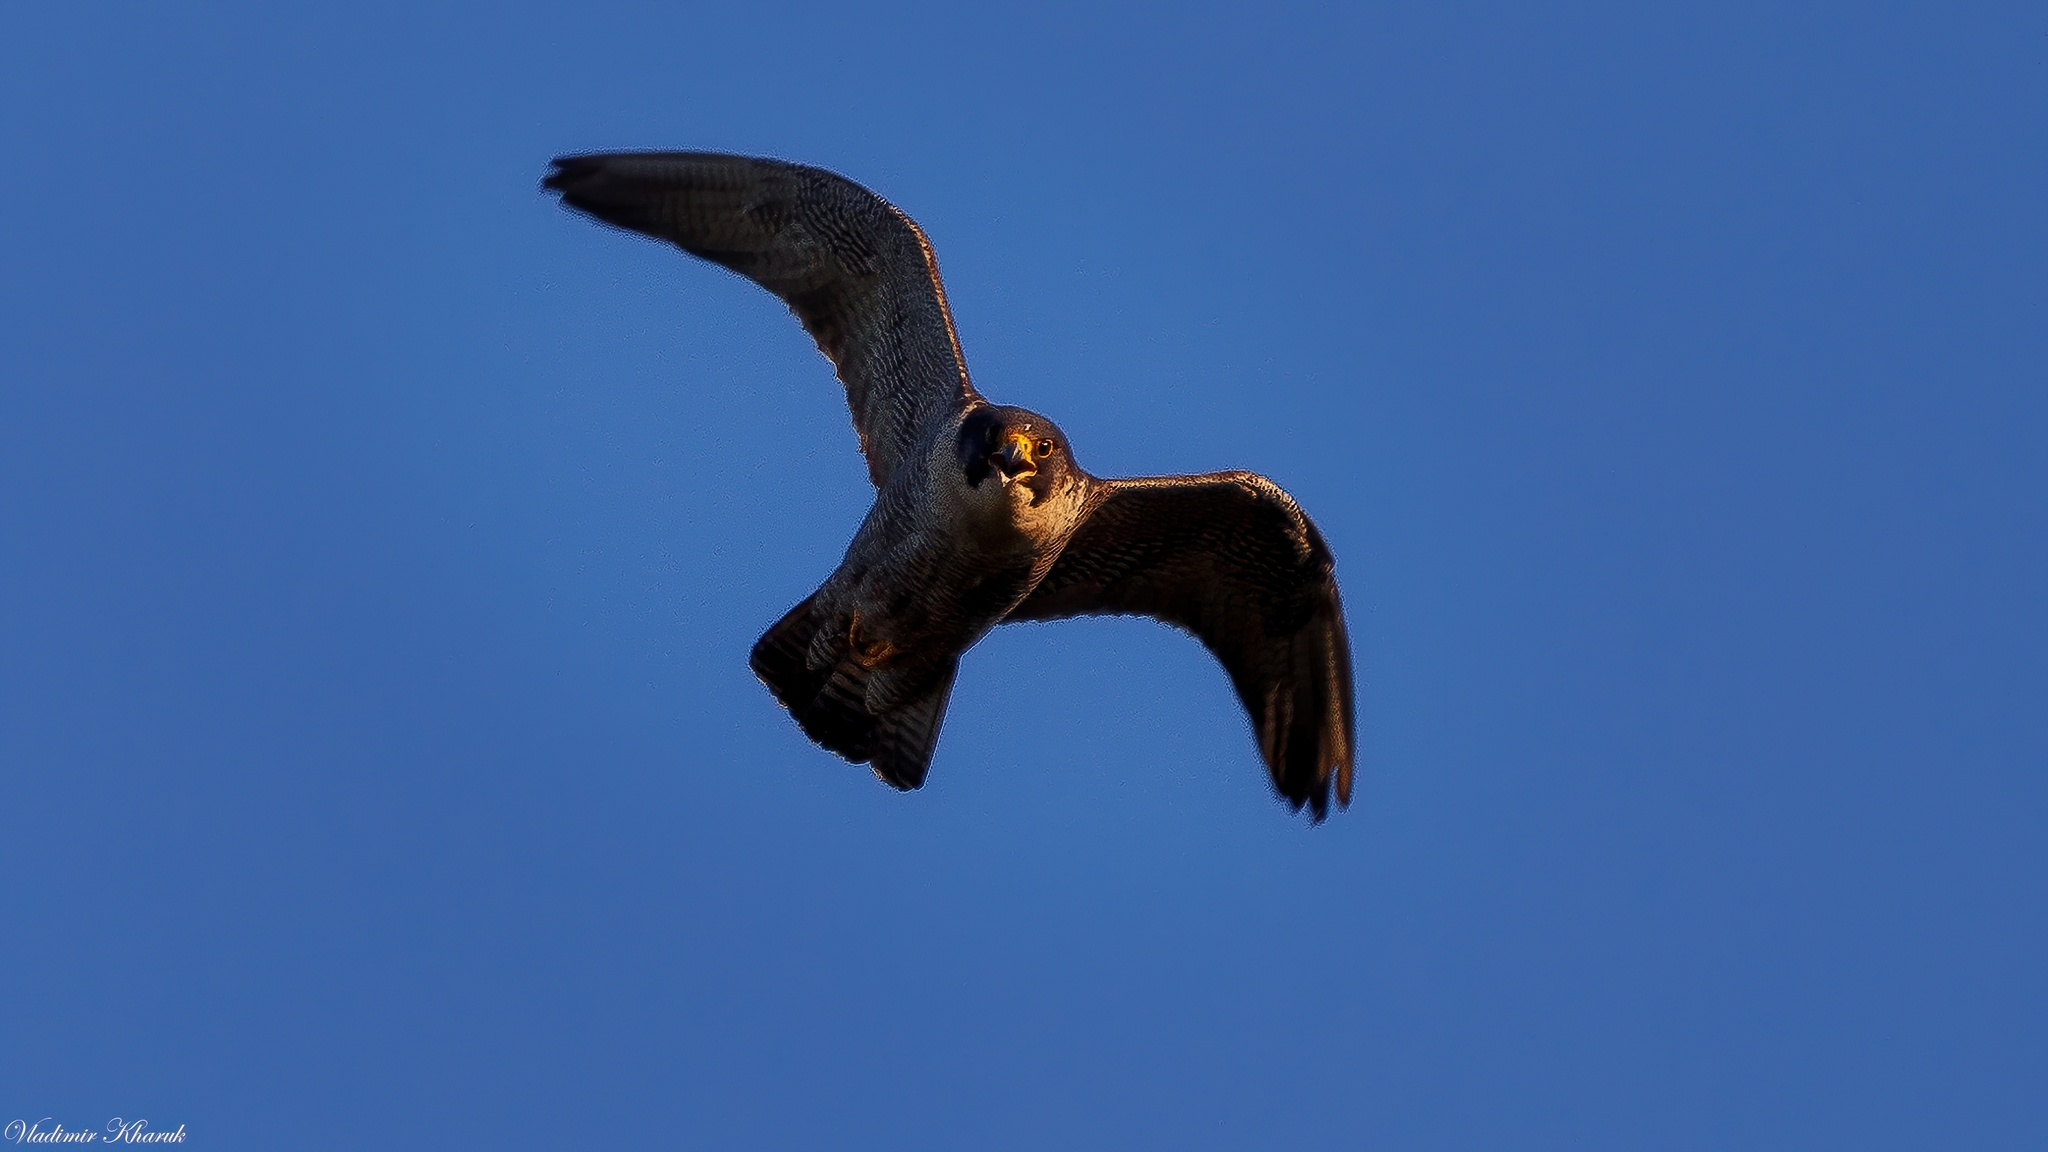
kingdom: Animalia
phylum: Chordata
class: Aves
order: Falconiformes
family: Falconidae
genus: Falco
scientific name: Falco peregrinus
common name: Peregrine falcon
